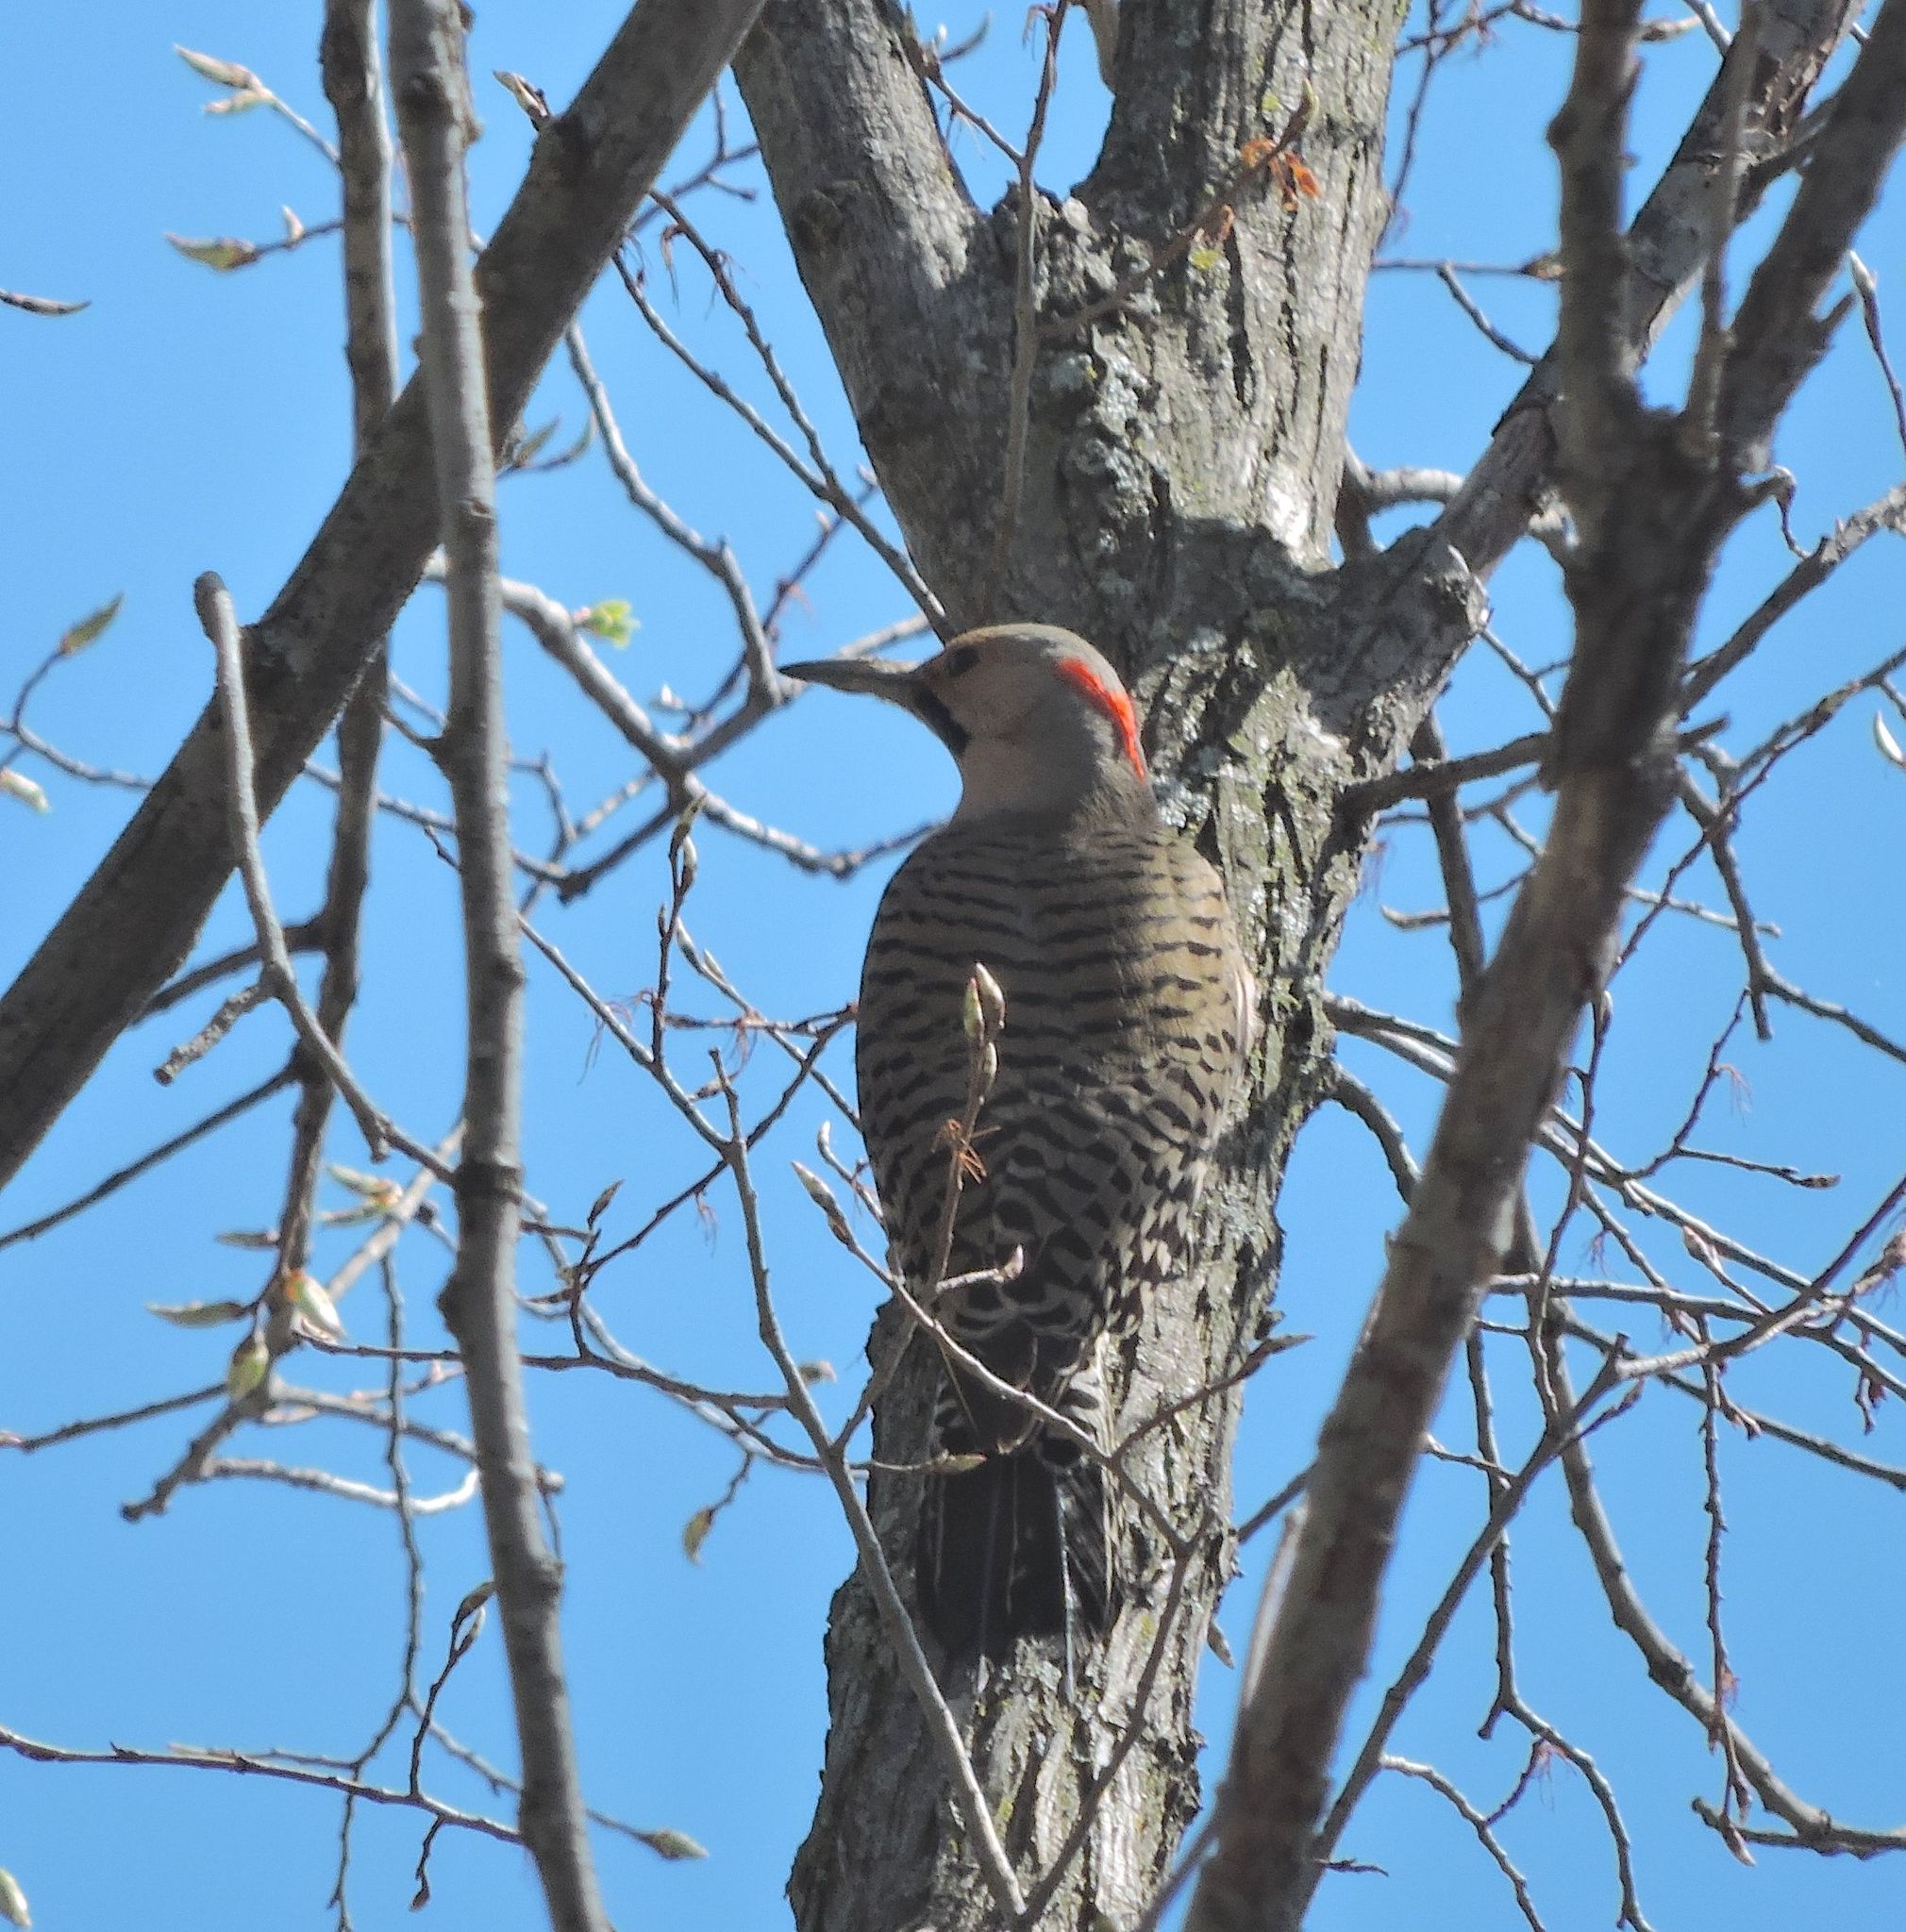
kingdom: Animalia
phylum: Chordata
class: Aves
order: Piciformes
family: Picidae
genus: Colaptes
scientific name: Colaptes auratus
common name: Northern flicker
